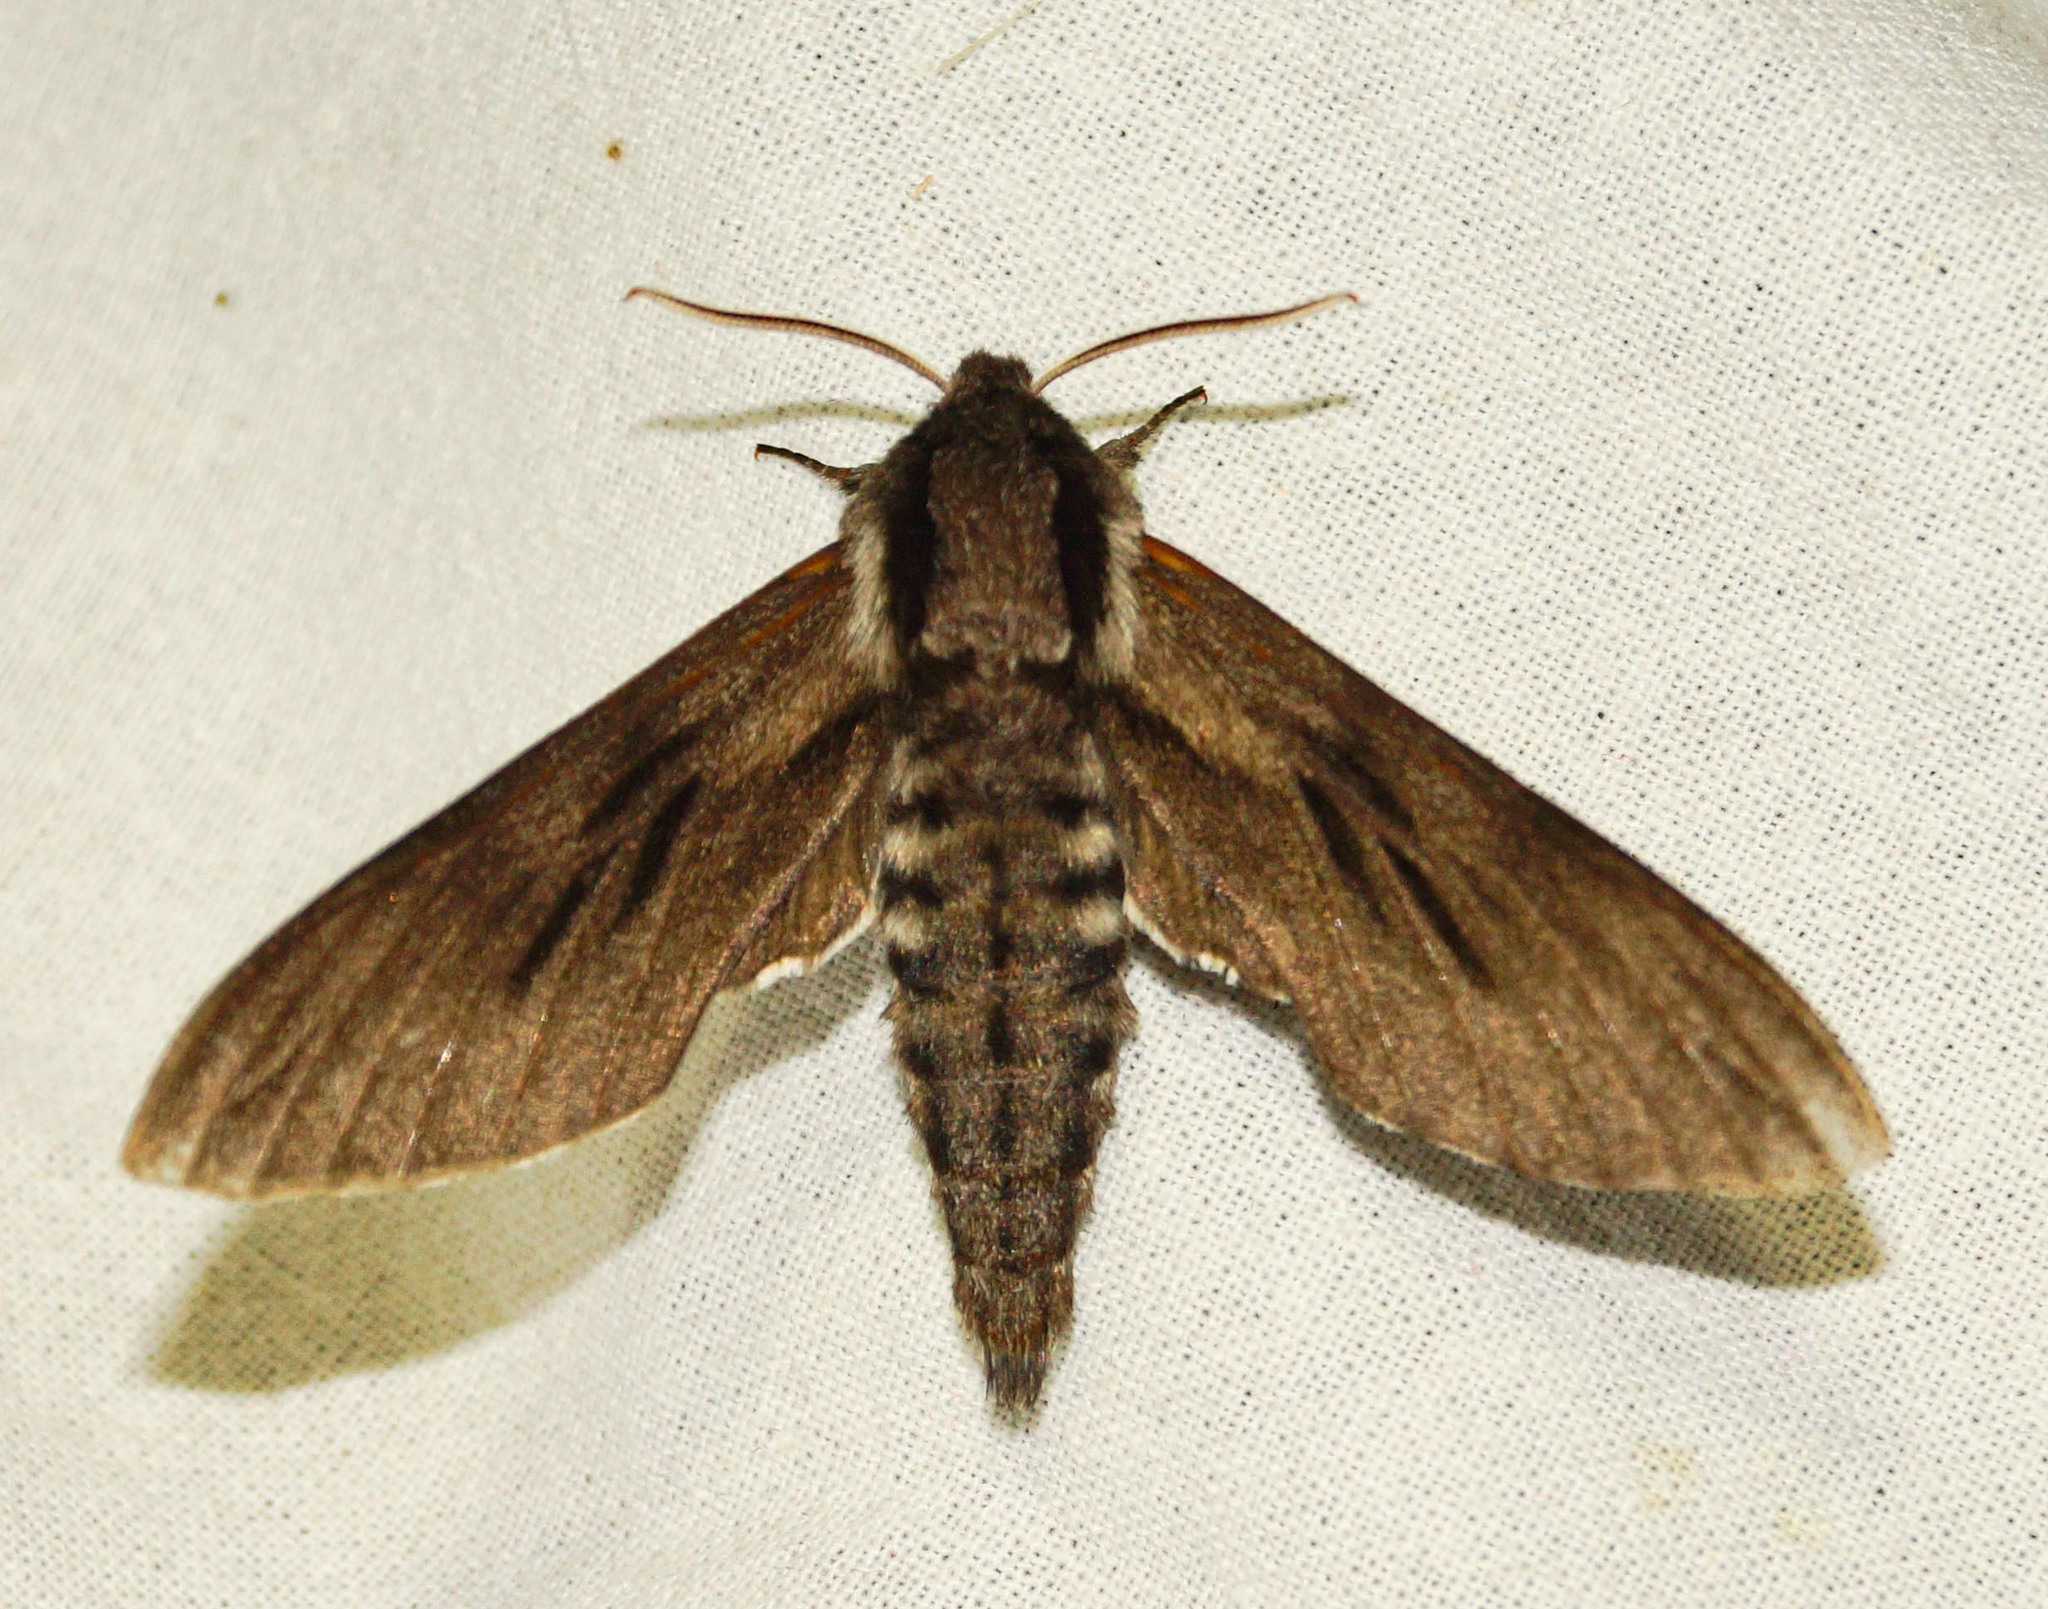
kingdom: Animalia
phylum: Arthropoda
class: Insecta
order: Lepidoptera
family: Sphingidae
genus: Sphinx
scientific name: Sphinx pinastri
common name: Pine hawk-moth
